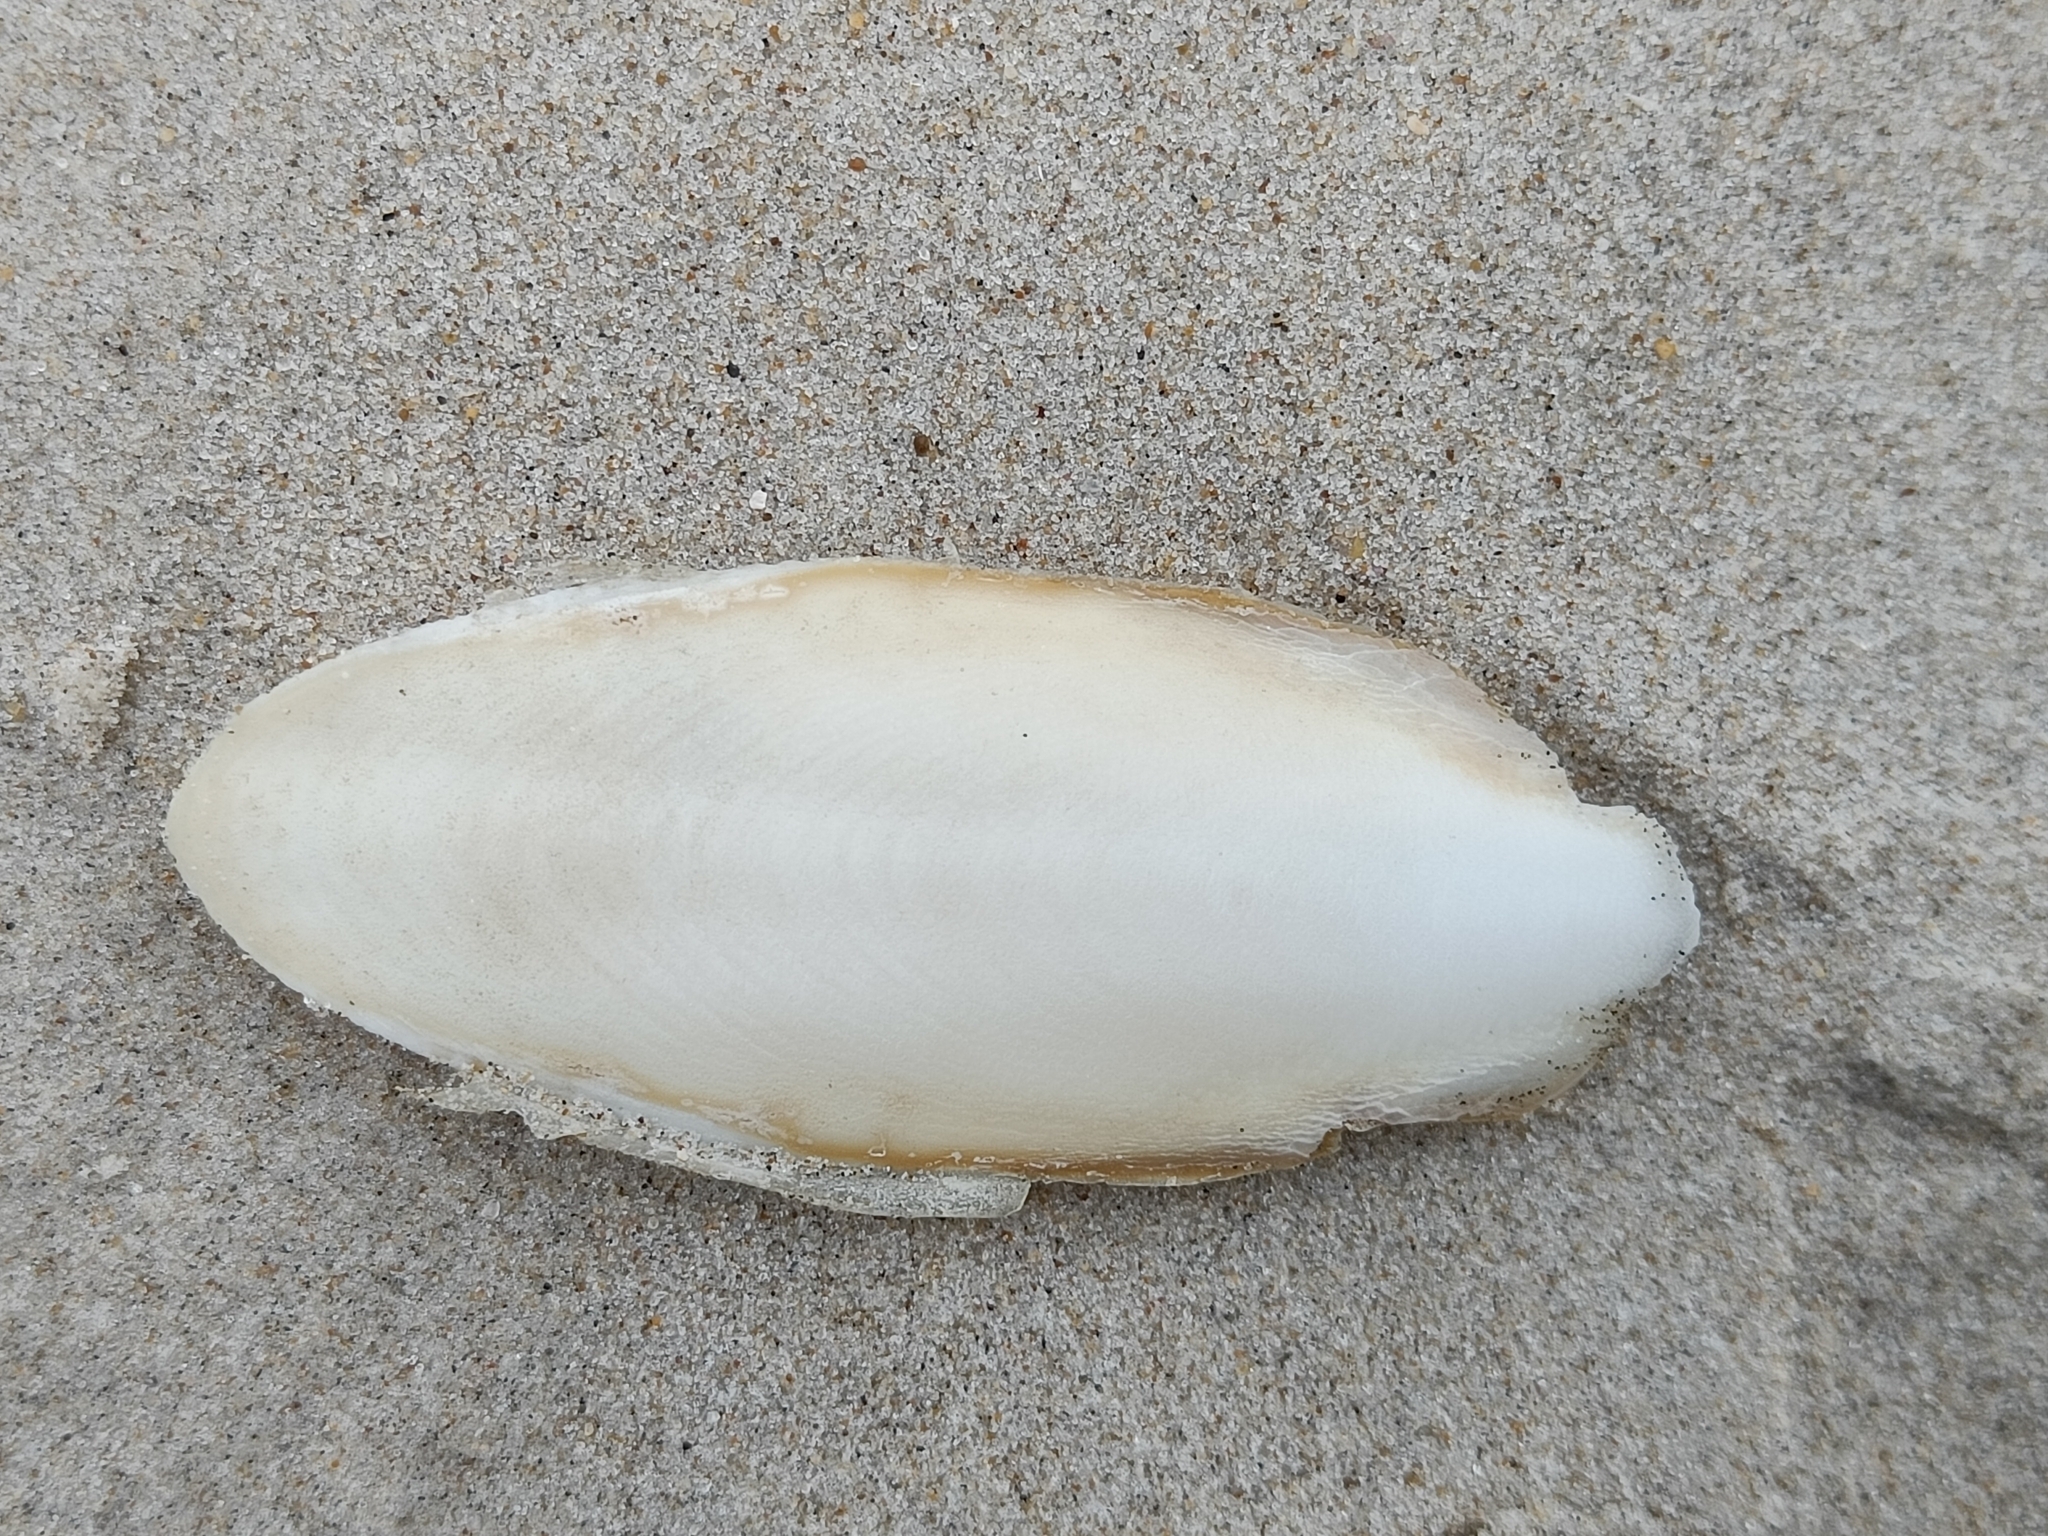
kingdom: Animalia
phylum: Mollusca
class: Cephalopoda
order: Sepiida
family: Sepiidae
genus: Sepia
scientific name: Sepia officinalis
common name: Common cuttlefish
